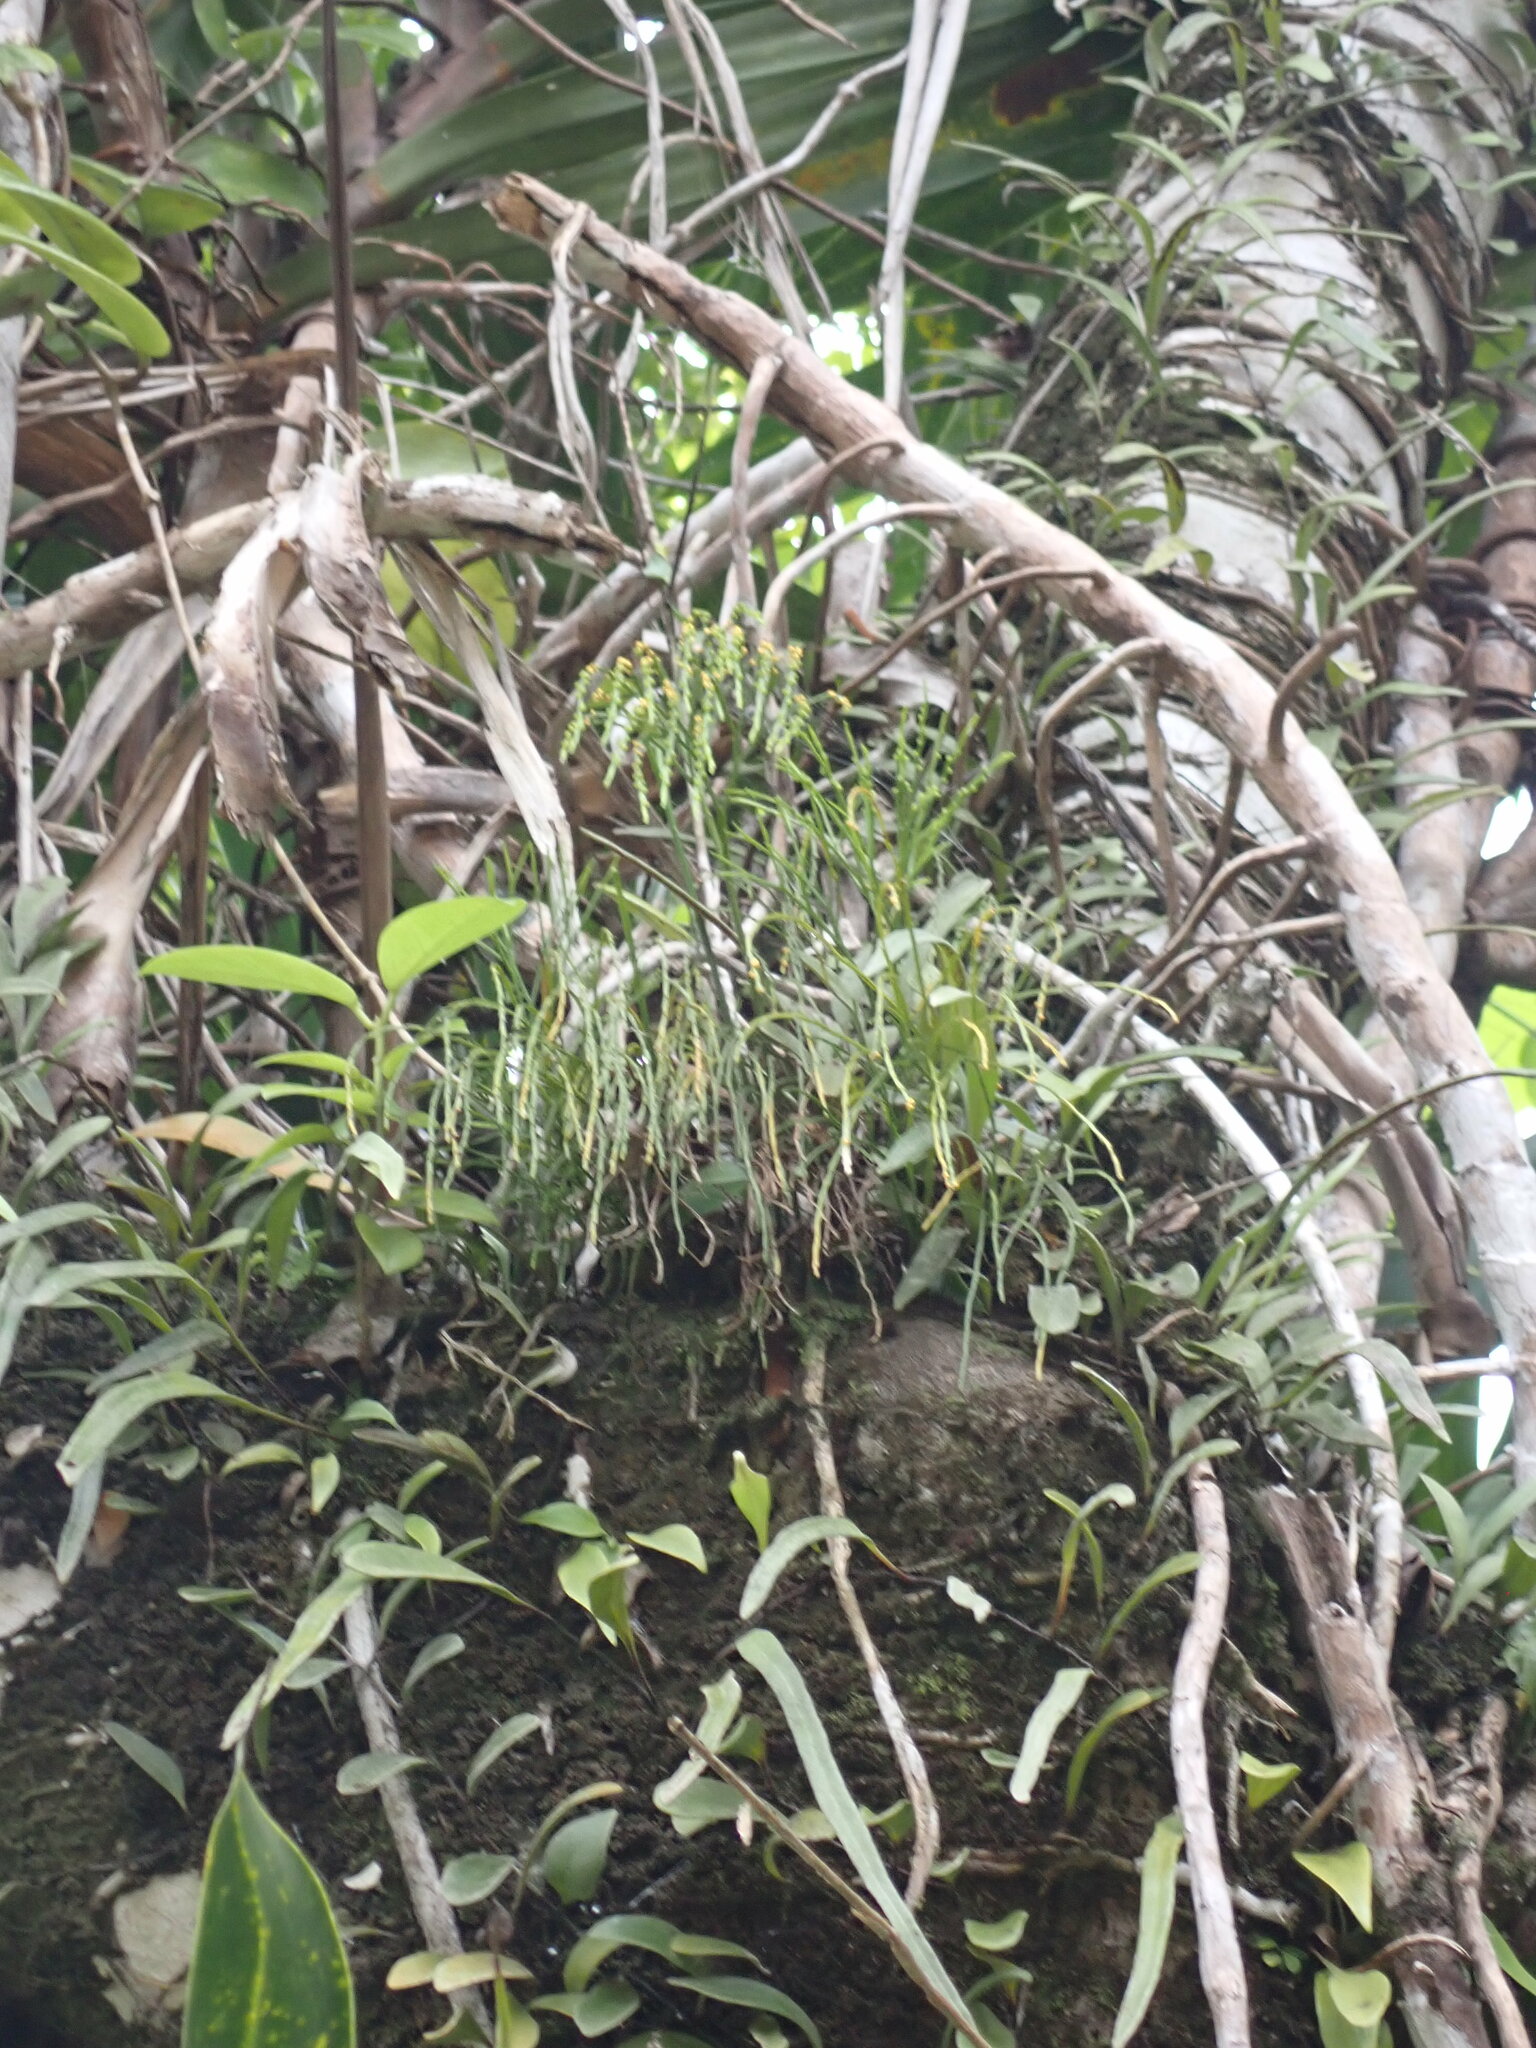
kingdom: Plantae
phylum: Tracheophyta
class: Polypodiopsida
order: Psilotales
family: Psilotaceae
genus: Psilotum
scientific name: Psilotum nudum
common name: Skeleton fork fern
